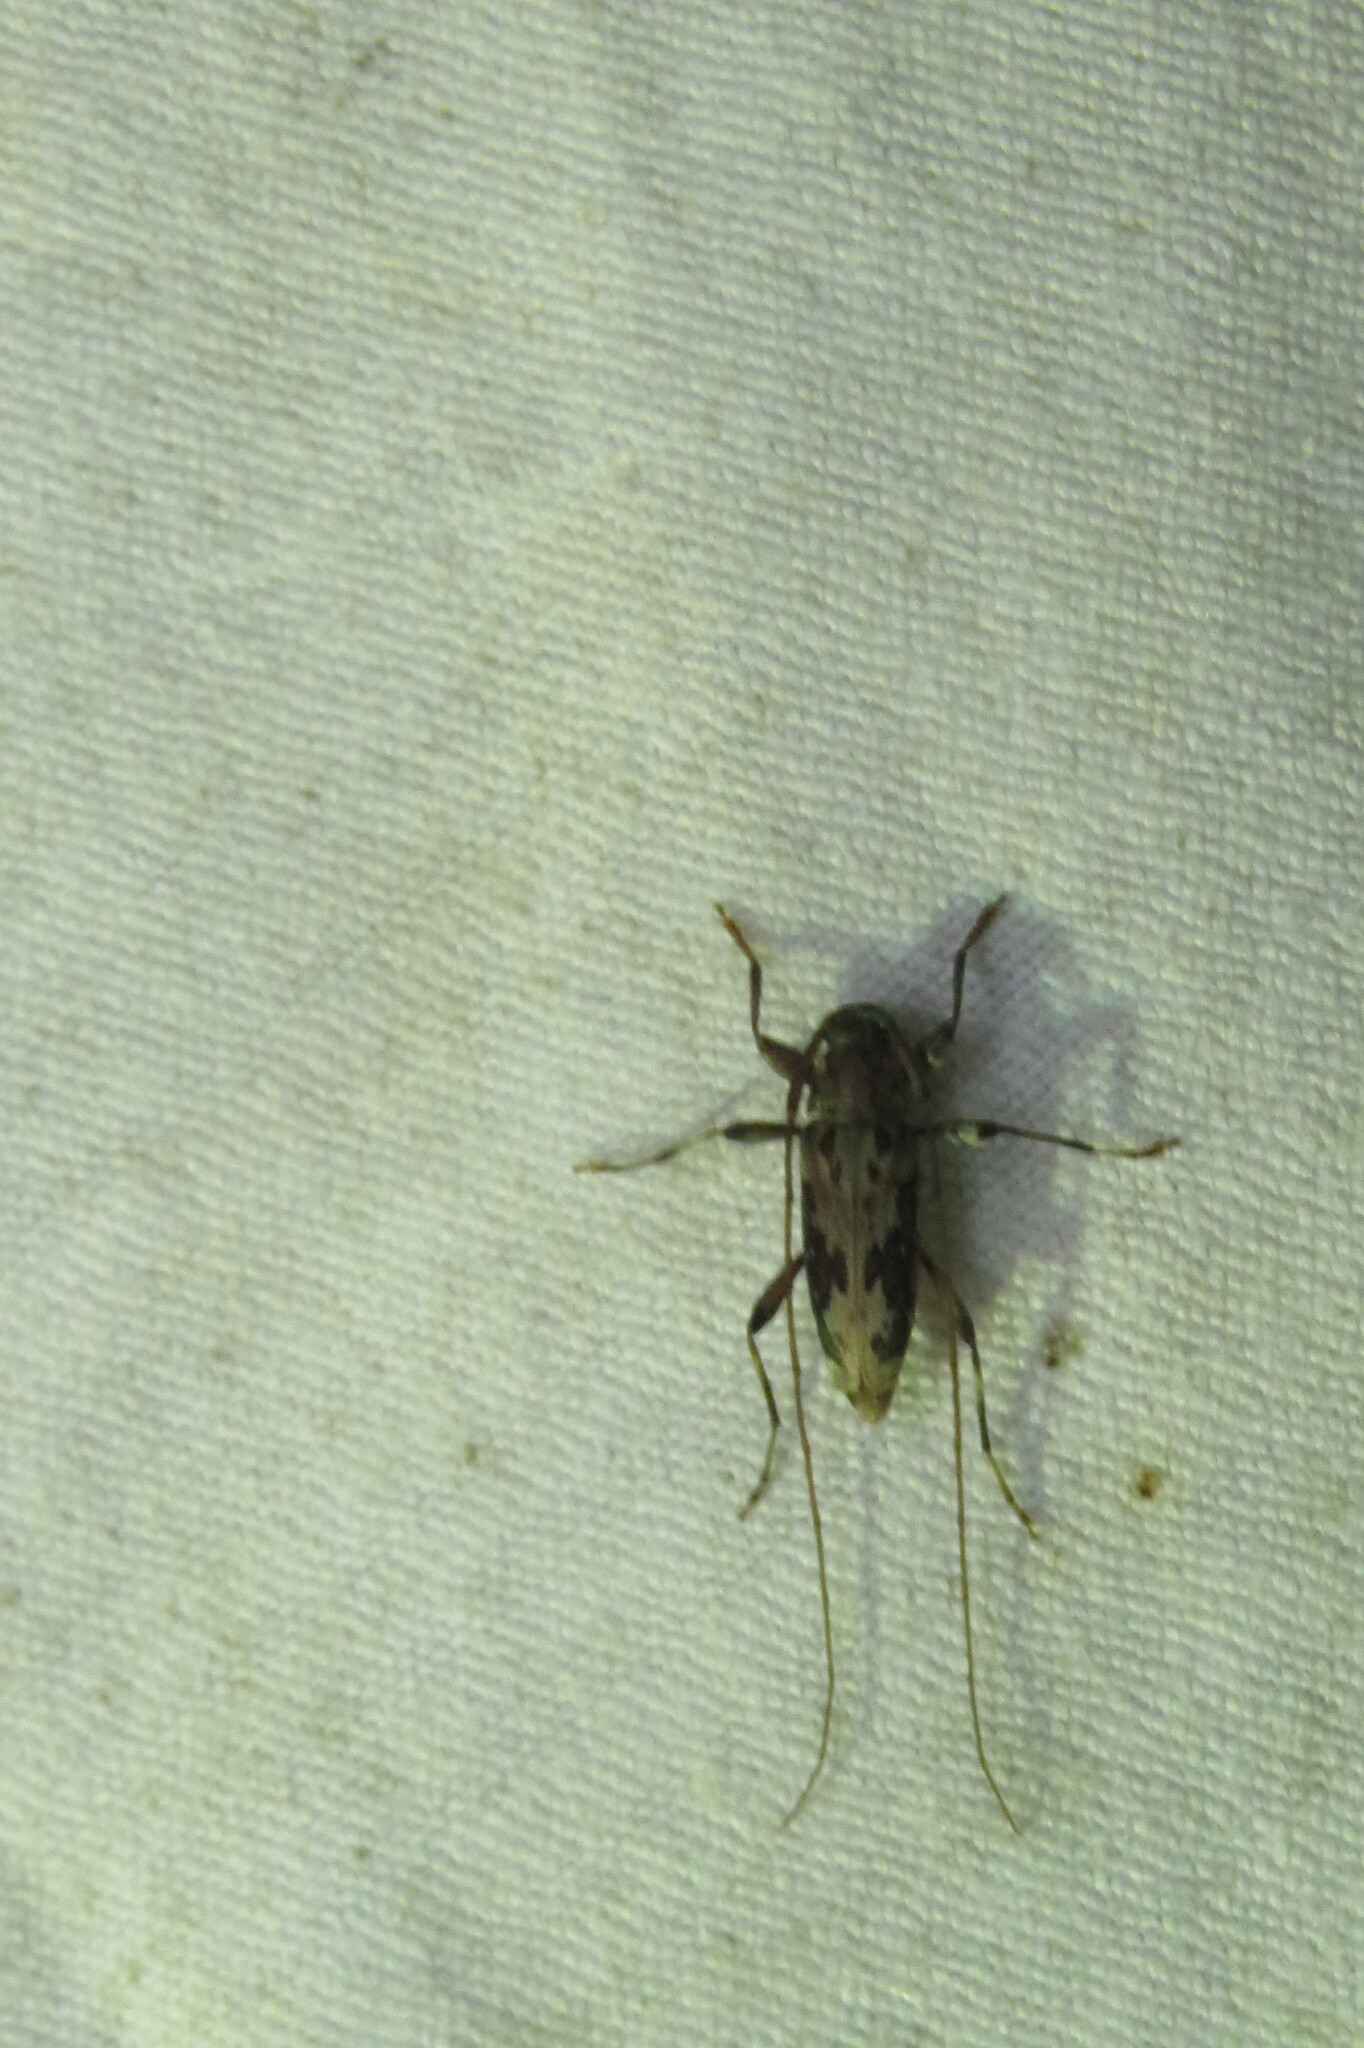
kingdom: Animalia
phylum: Arthropoda
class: Insecta
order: Coleoptera
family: Cerambycidae
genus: Lepturges
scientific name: Lepturges confluens
